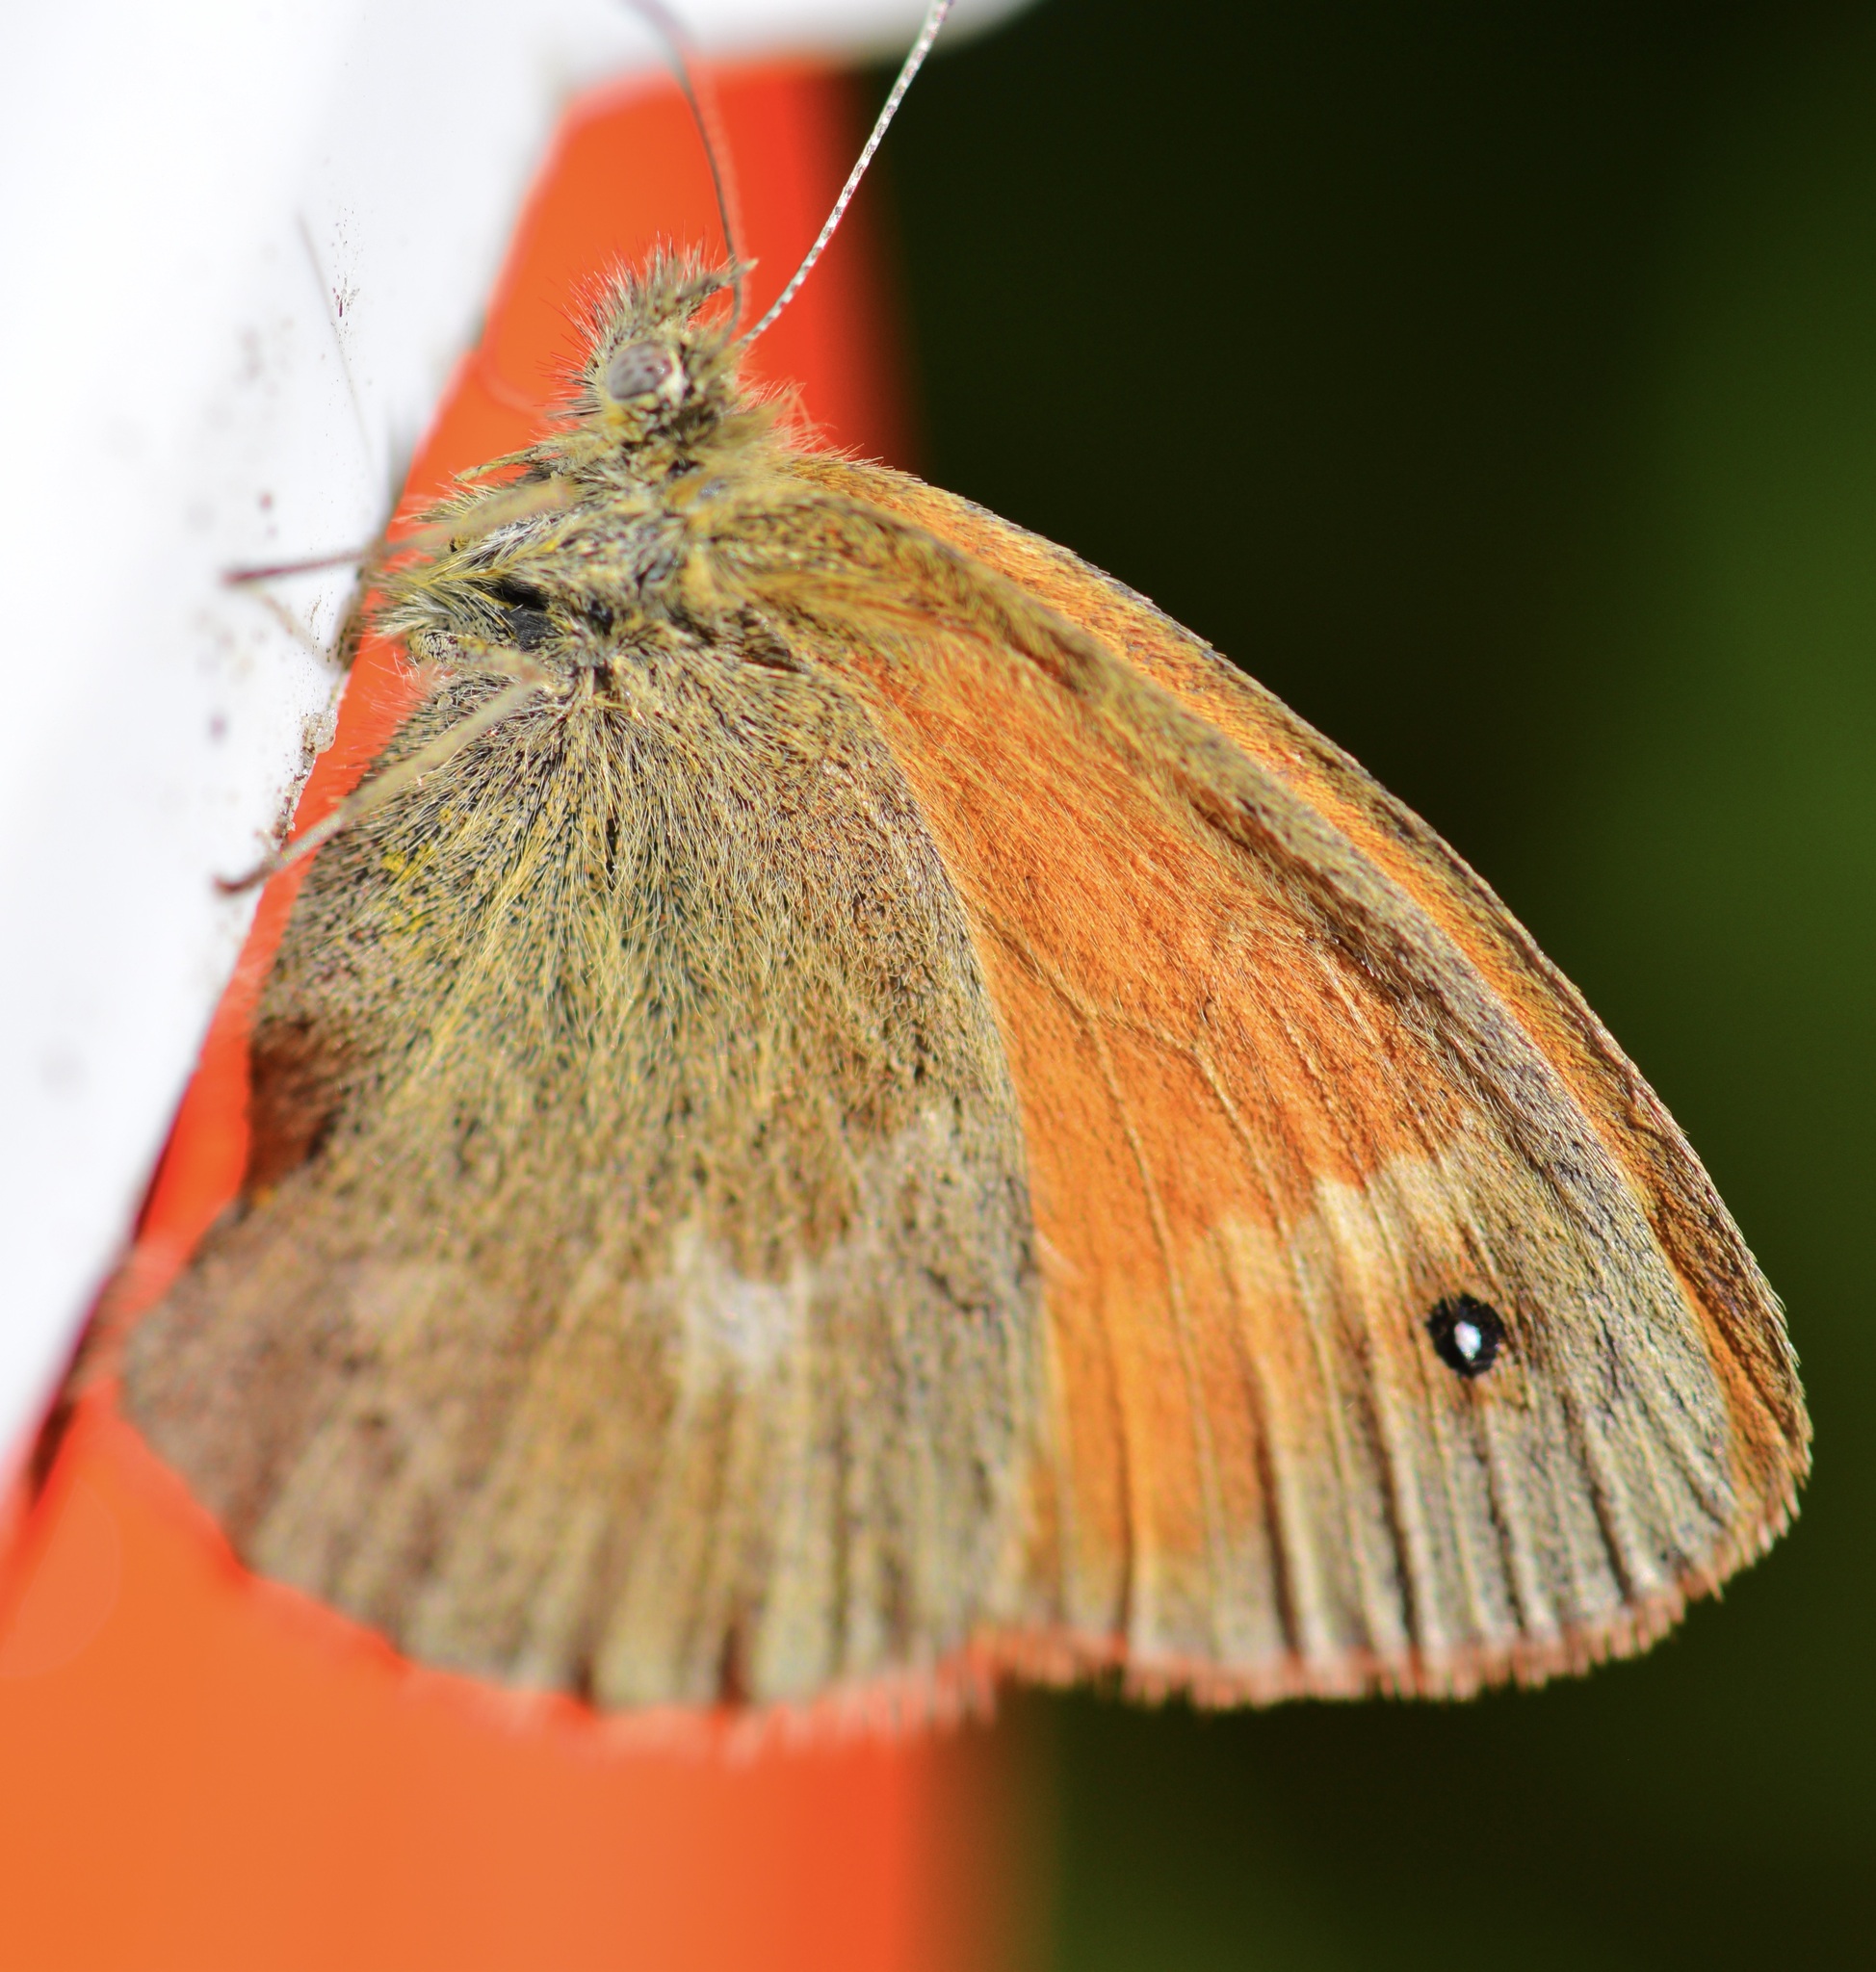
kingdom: Animalia
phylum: Arthropoda
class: Insecta
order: Lepidoptera
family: Nymphalidae
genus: Coenonympha
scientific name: Coenonympha california
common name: Common ringlet
